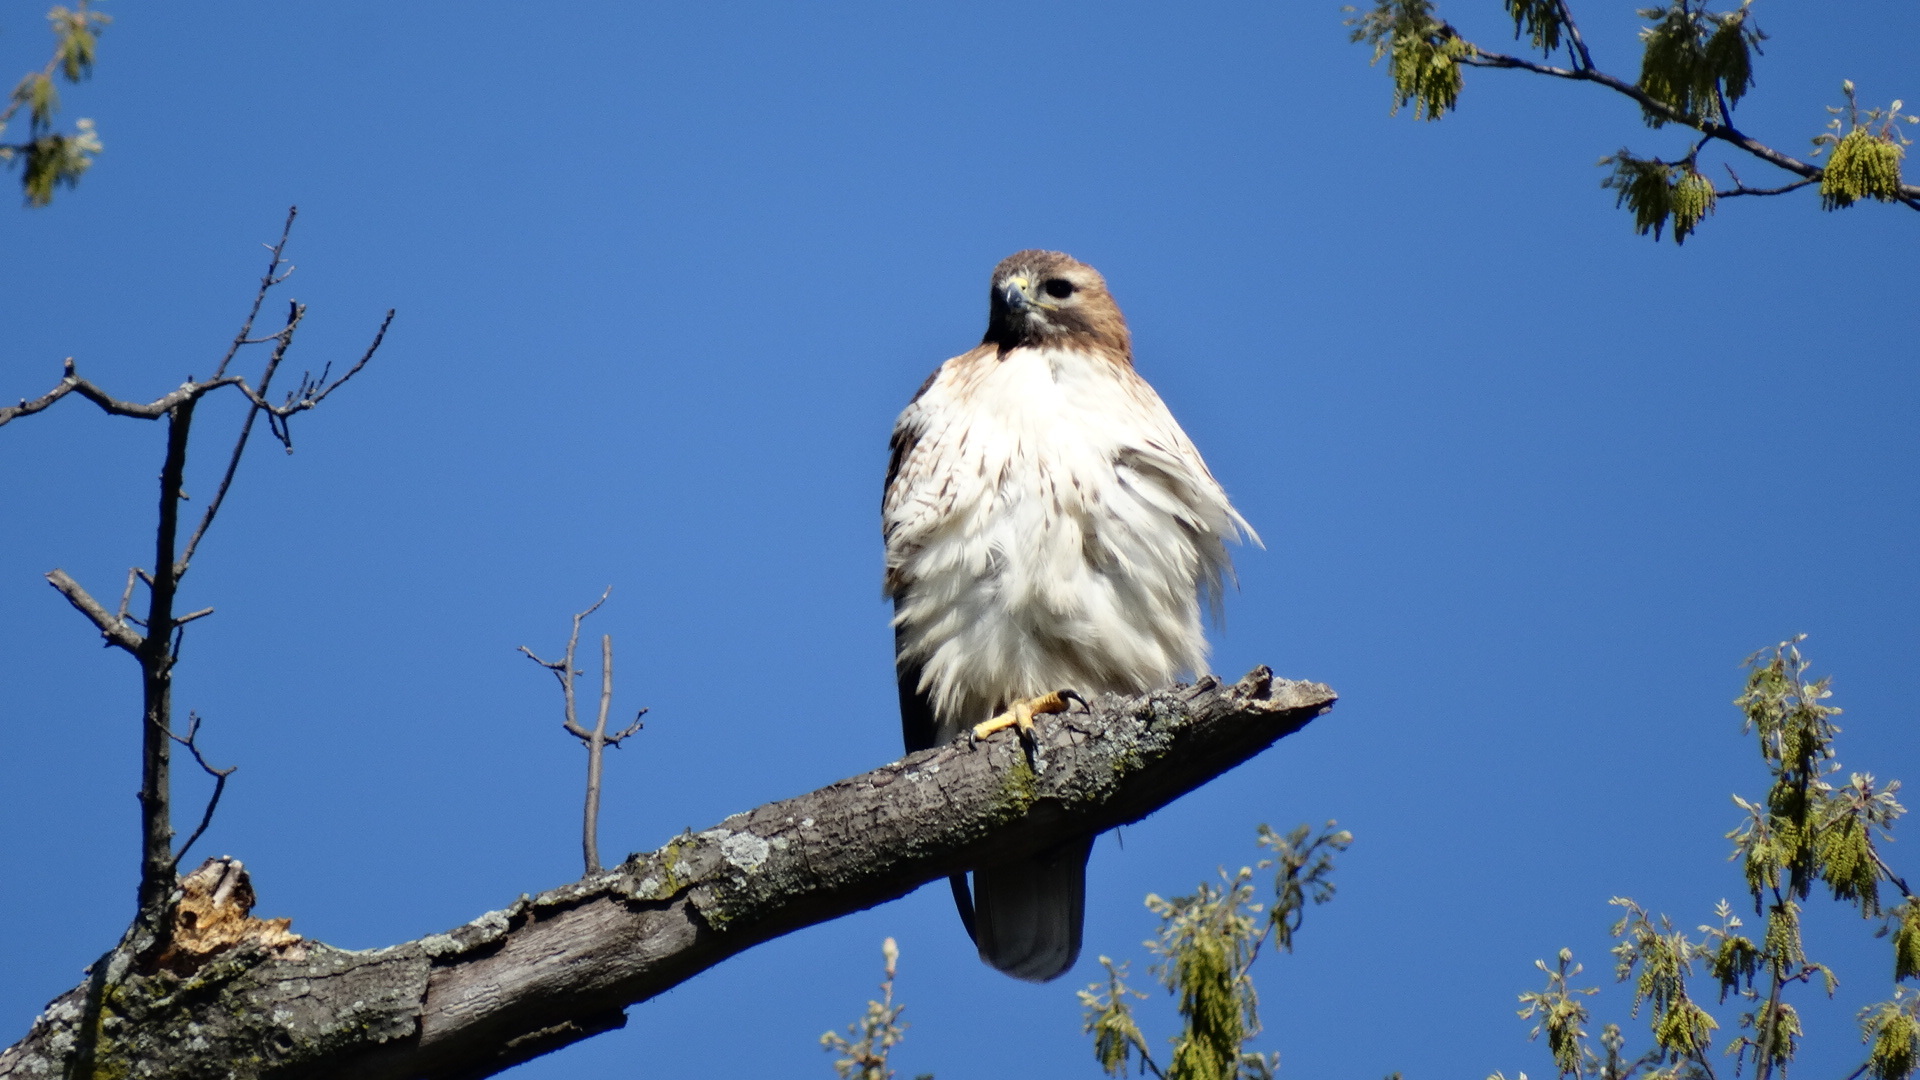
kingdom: Animalia
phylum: Chordata
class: Aves
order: Accipitriformes
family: Accipitridae
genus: Buteo
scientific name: Buteo jamaicensis
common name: Red-tailed hawk
